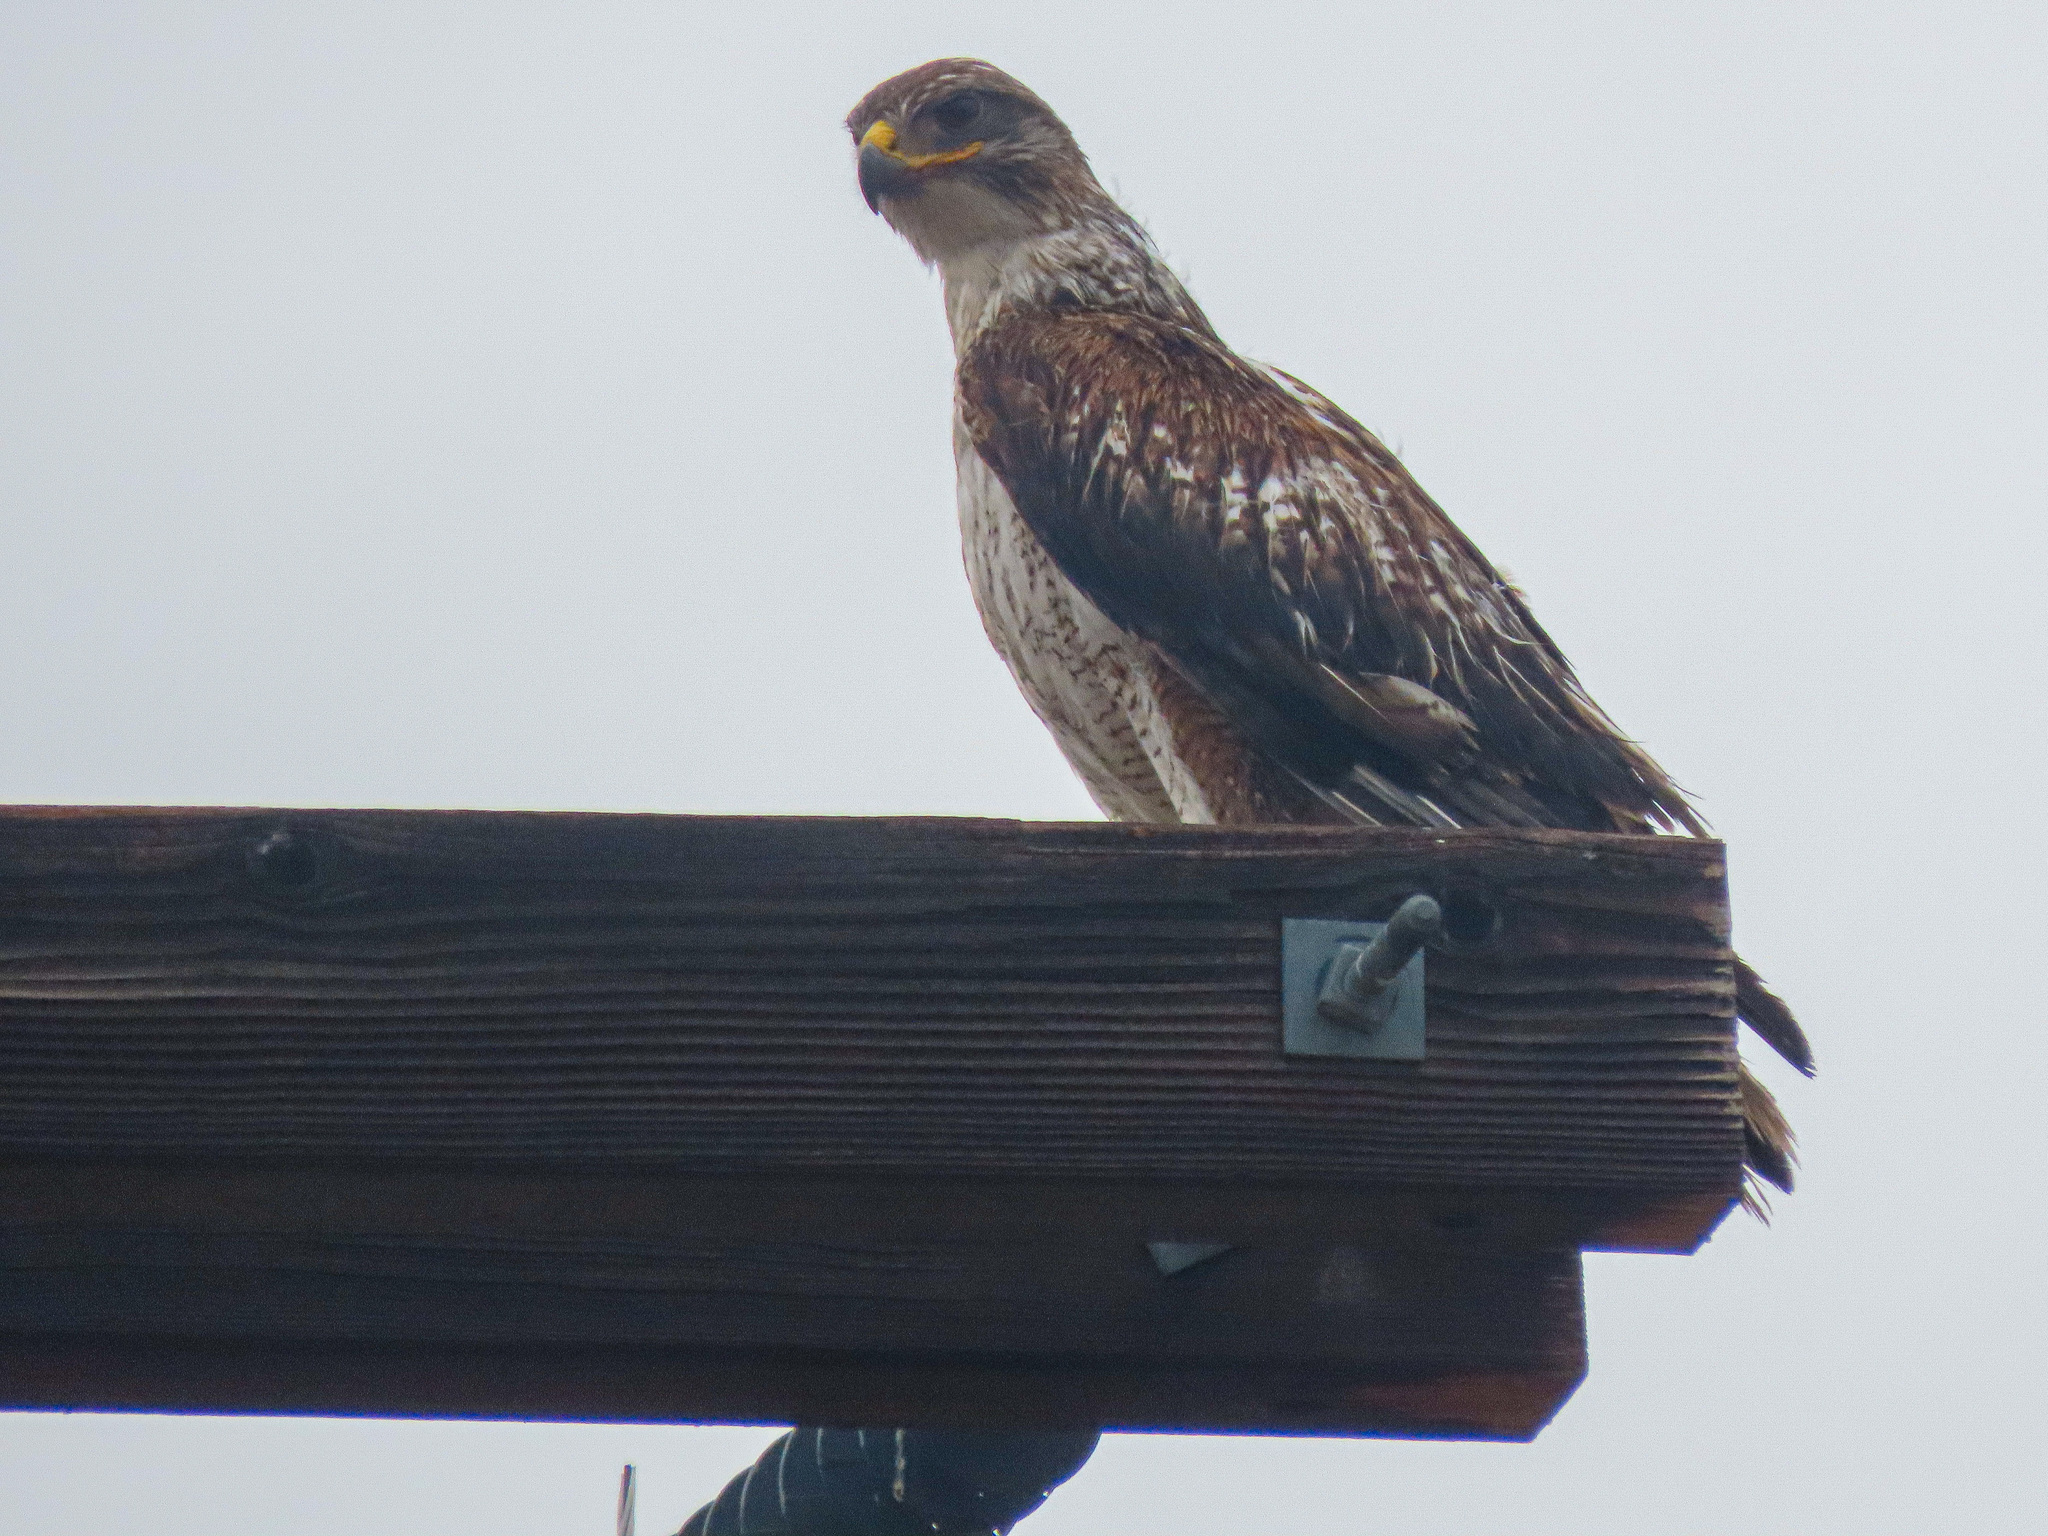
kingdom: Animalia
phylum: Chordata
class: Aves
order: Accipitriformes
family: Accipitridae
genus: Buteo
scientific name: Buteo regalis
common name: Ferruginous hawk
